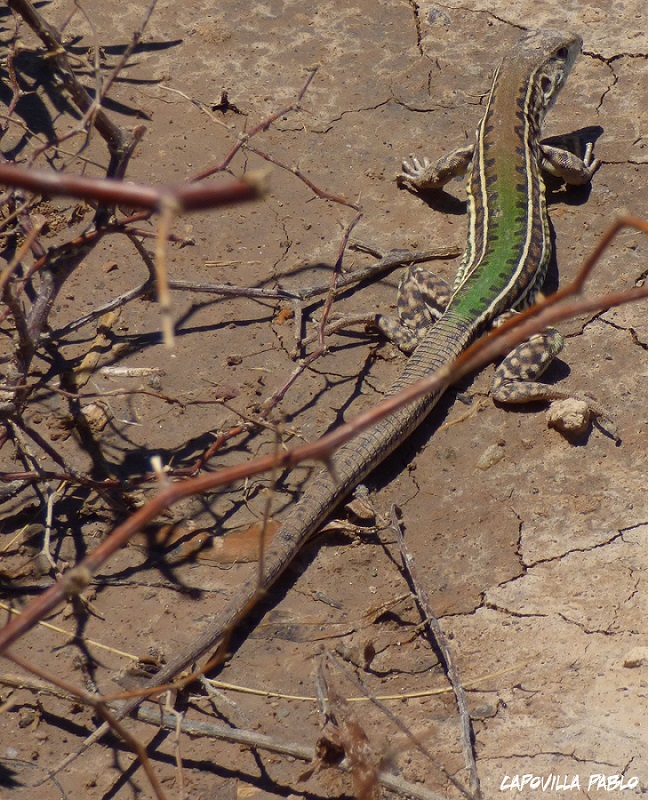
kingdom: Animalia
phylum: Chordata
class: Squamata
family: Teiidae
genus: Teius
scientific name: Teius suquiensis
